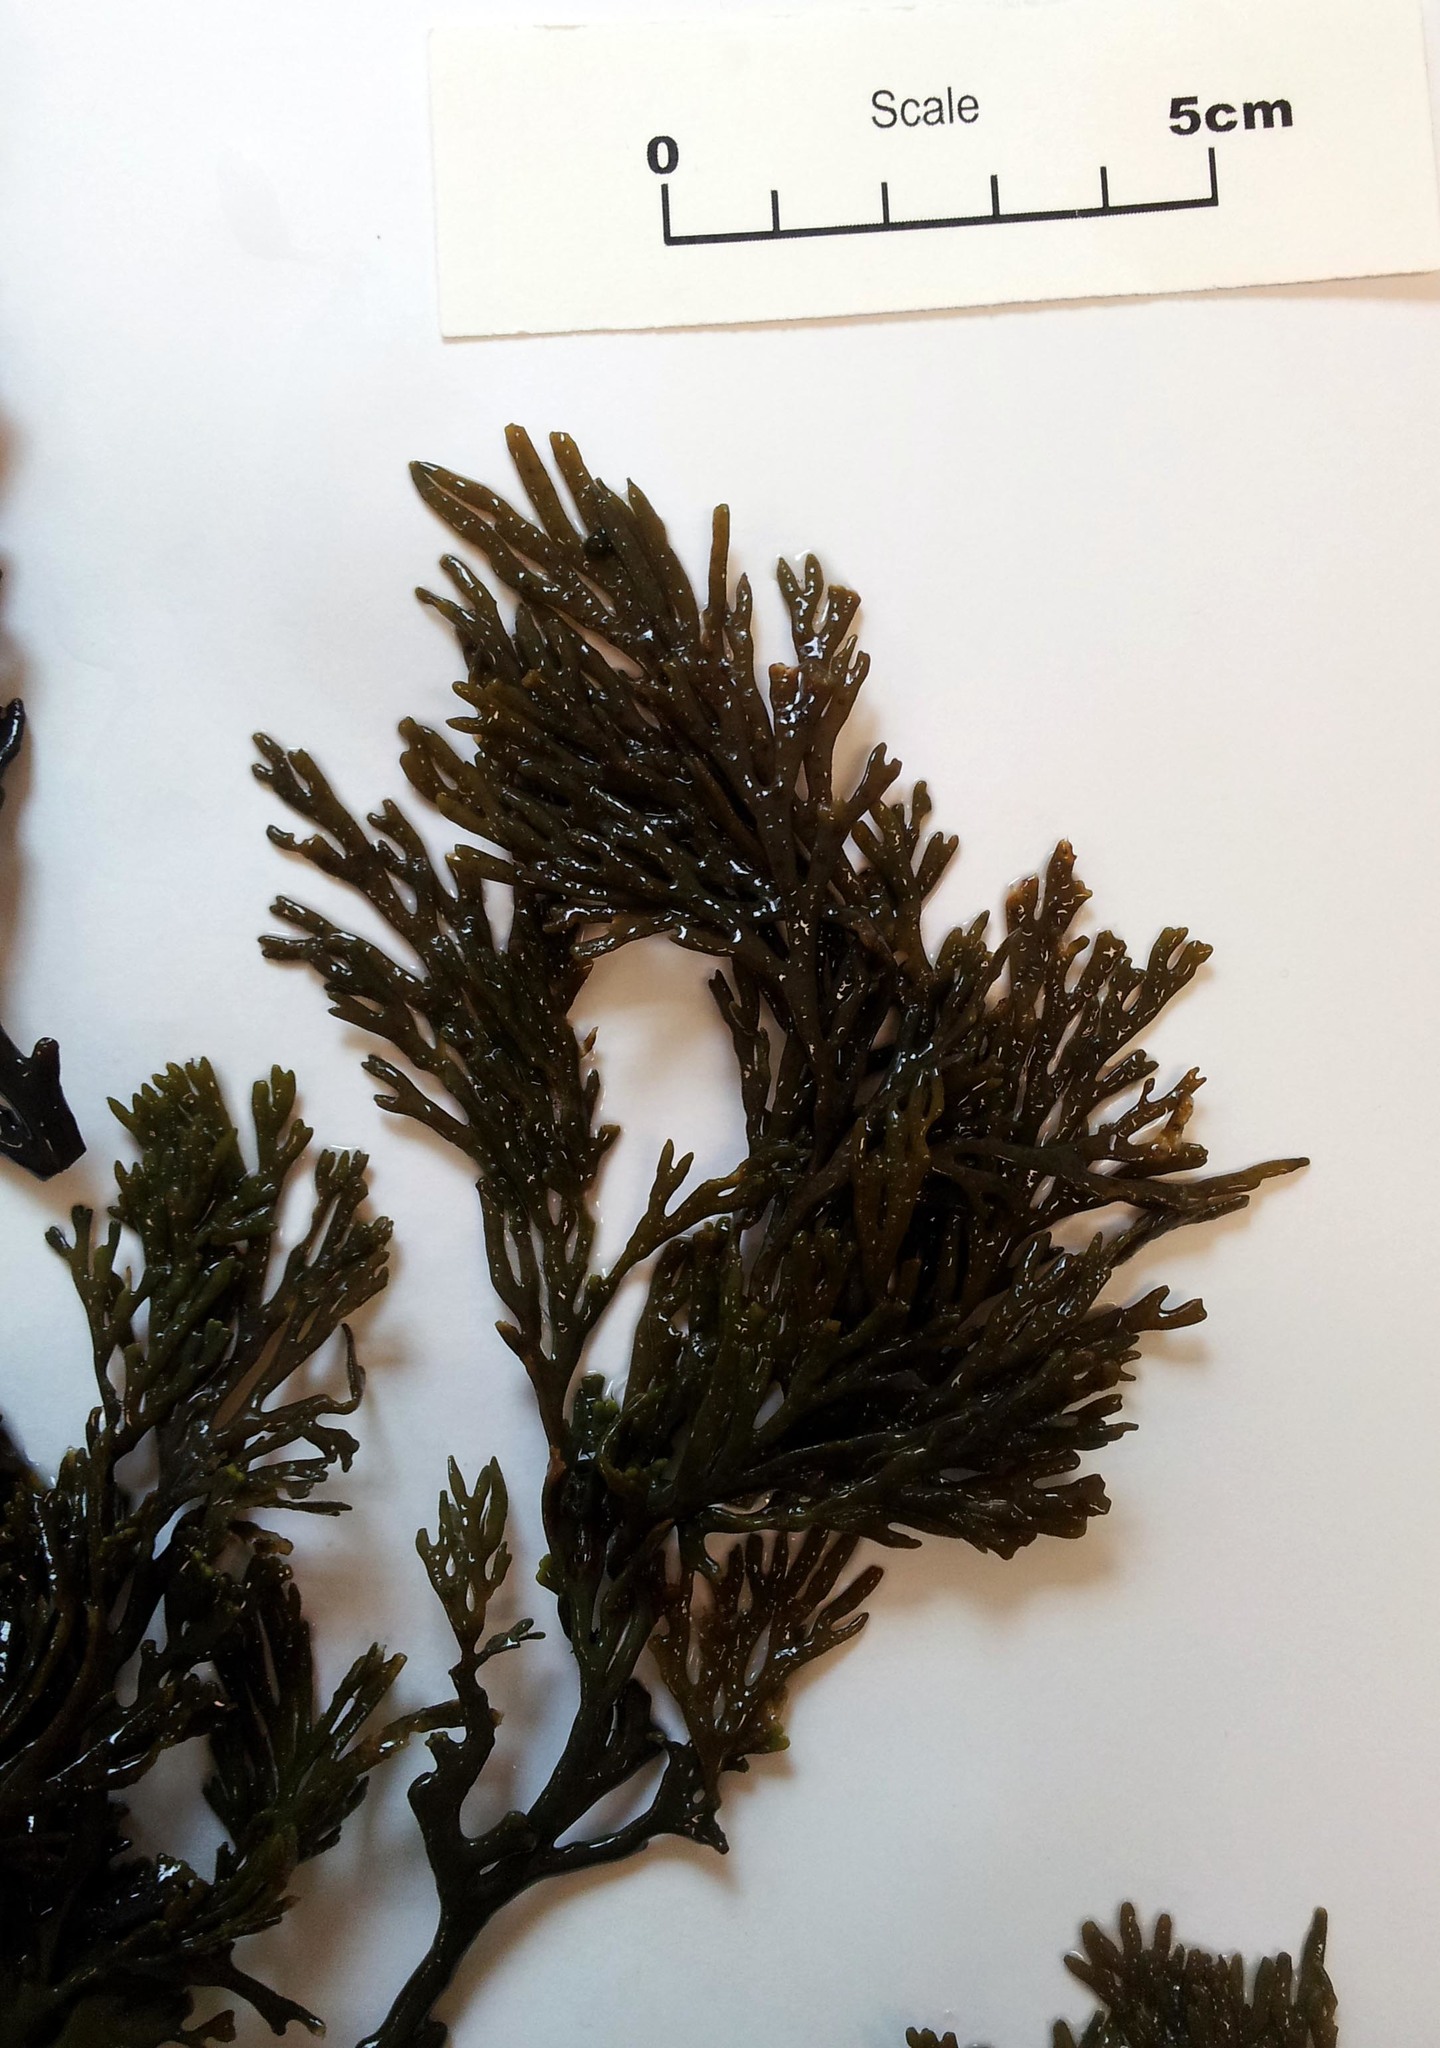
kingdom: Chromista
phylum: Ochrophyta
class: Phaeophyceae
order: Fucales
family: Xiphophoraceae
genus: Xiphophora
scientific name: Xiphophora chondrophylla
